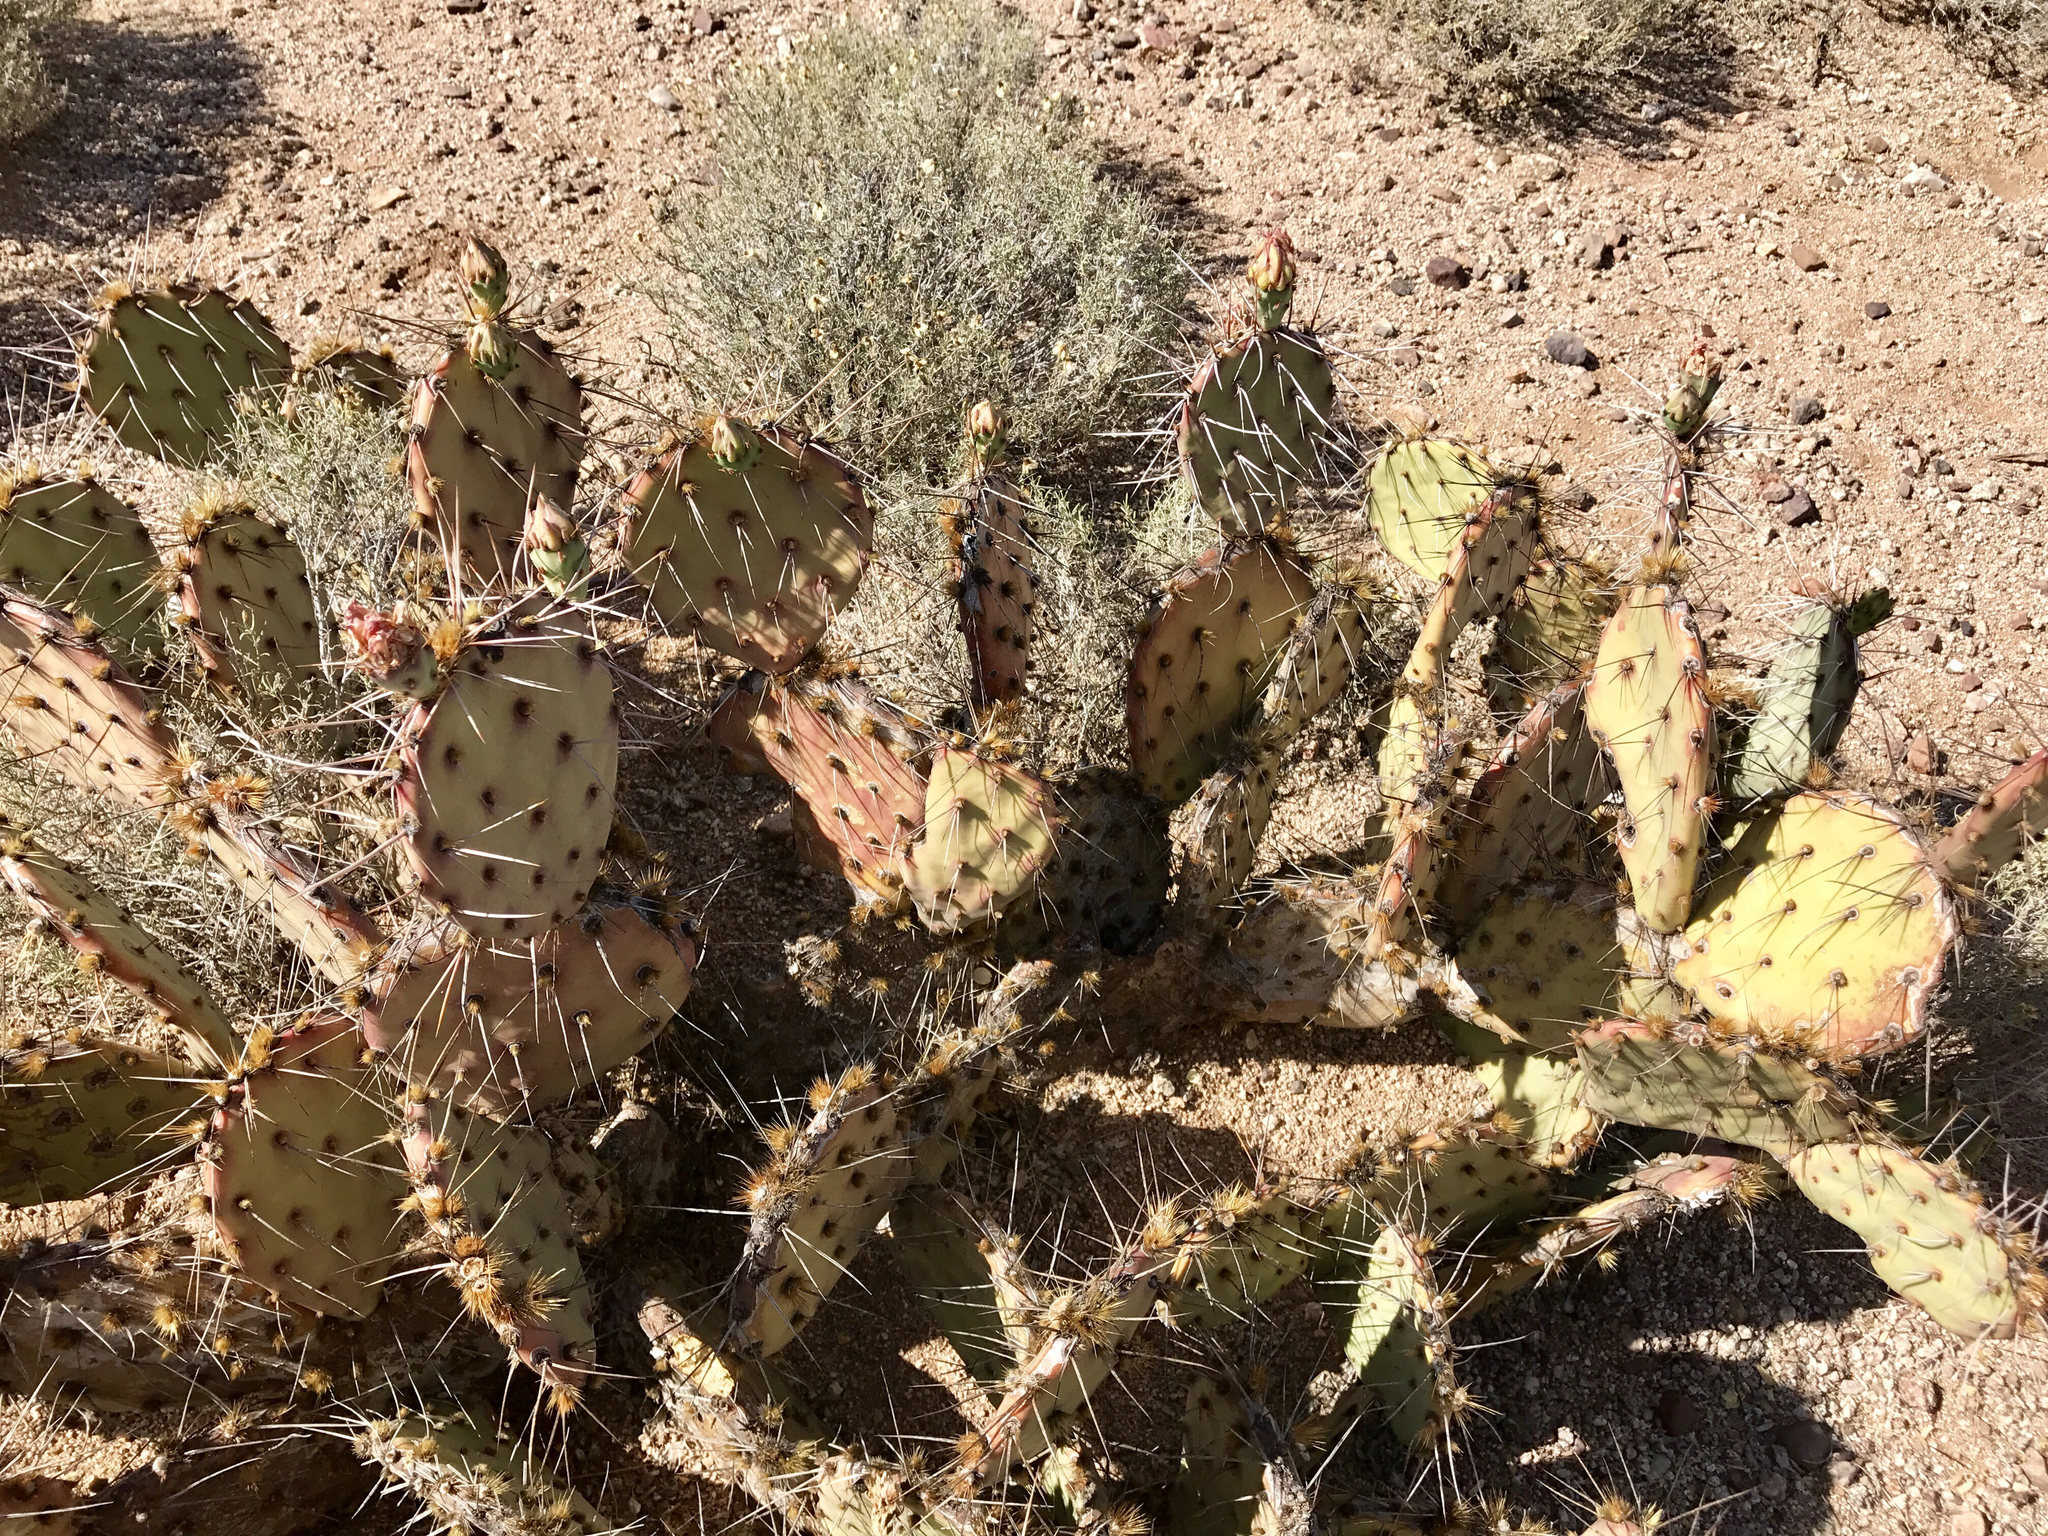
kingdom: Plantae
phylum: Tracheophyta
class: Magnoliopsida
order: Caryophyllales
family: Cactaceae
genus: Opuntia
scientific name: Opuntia phaeacantha
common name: New mexico prickly-pear
